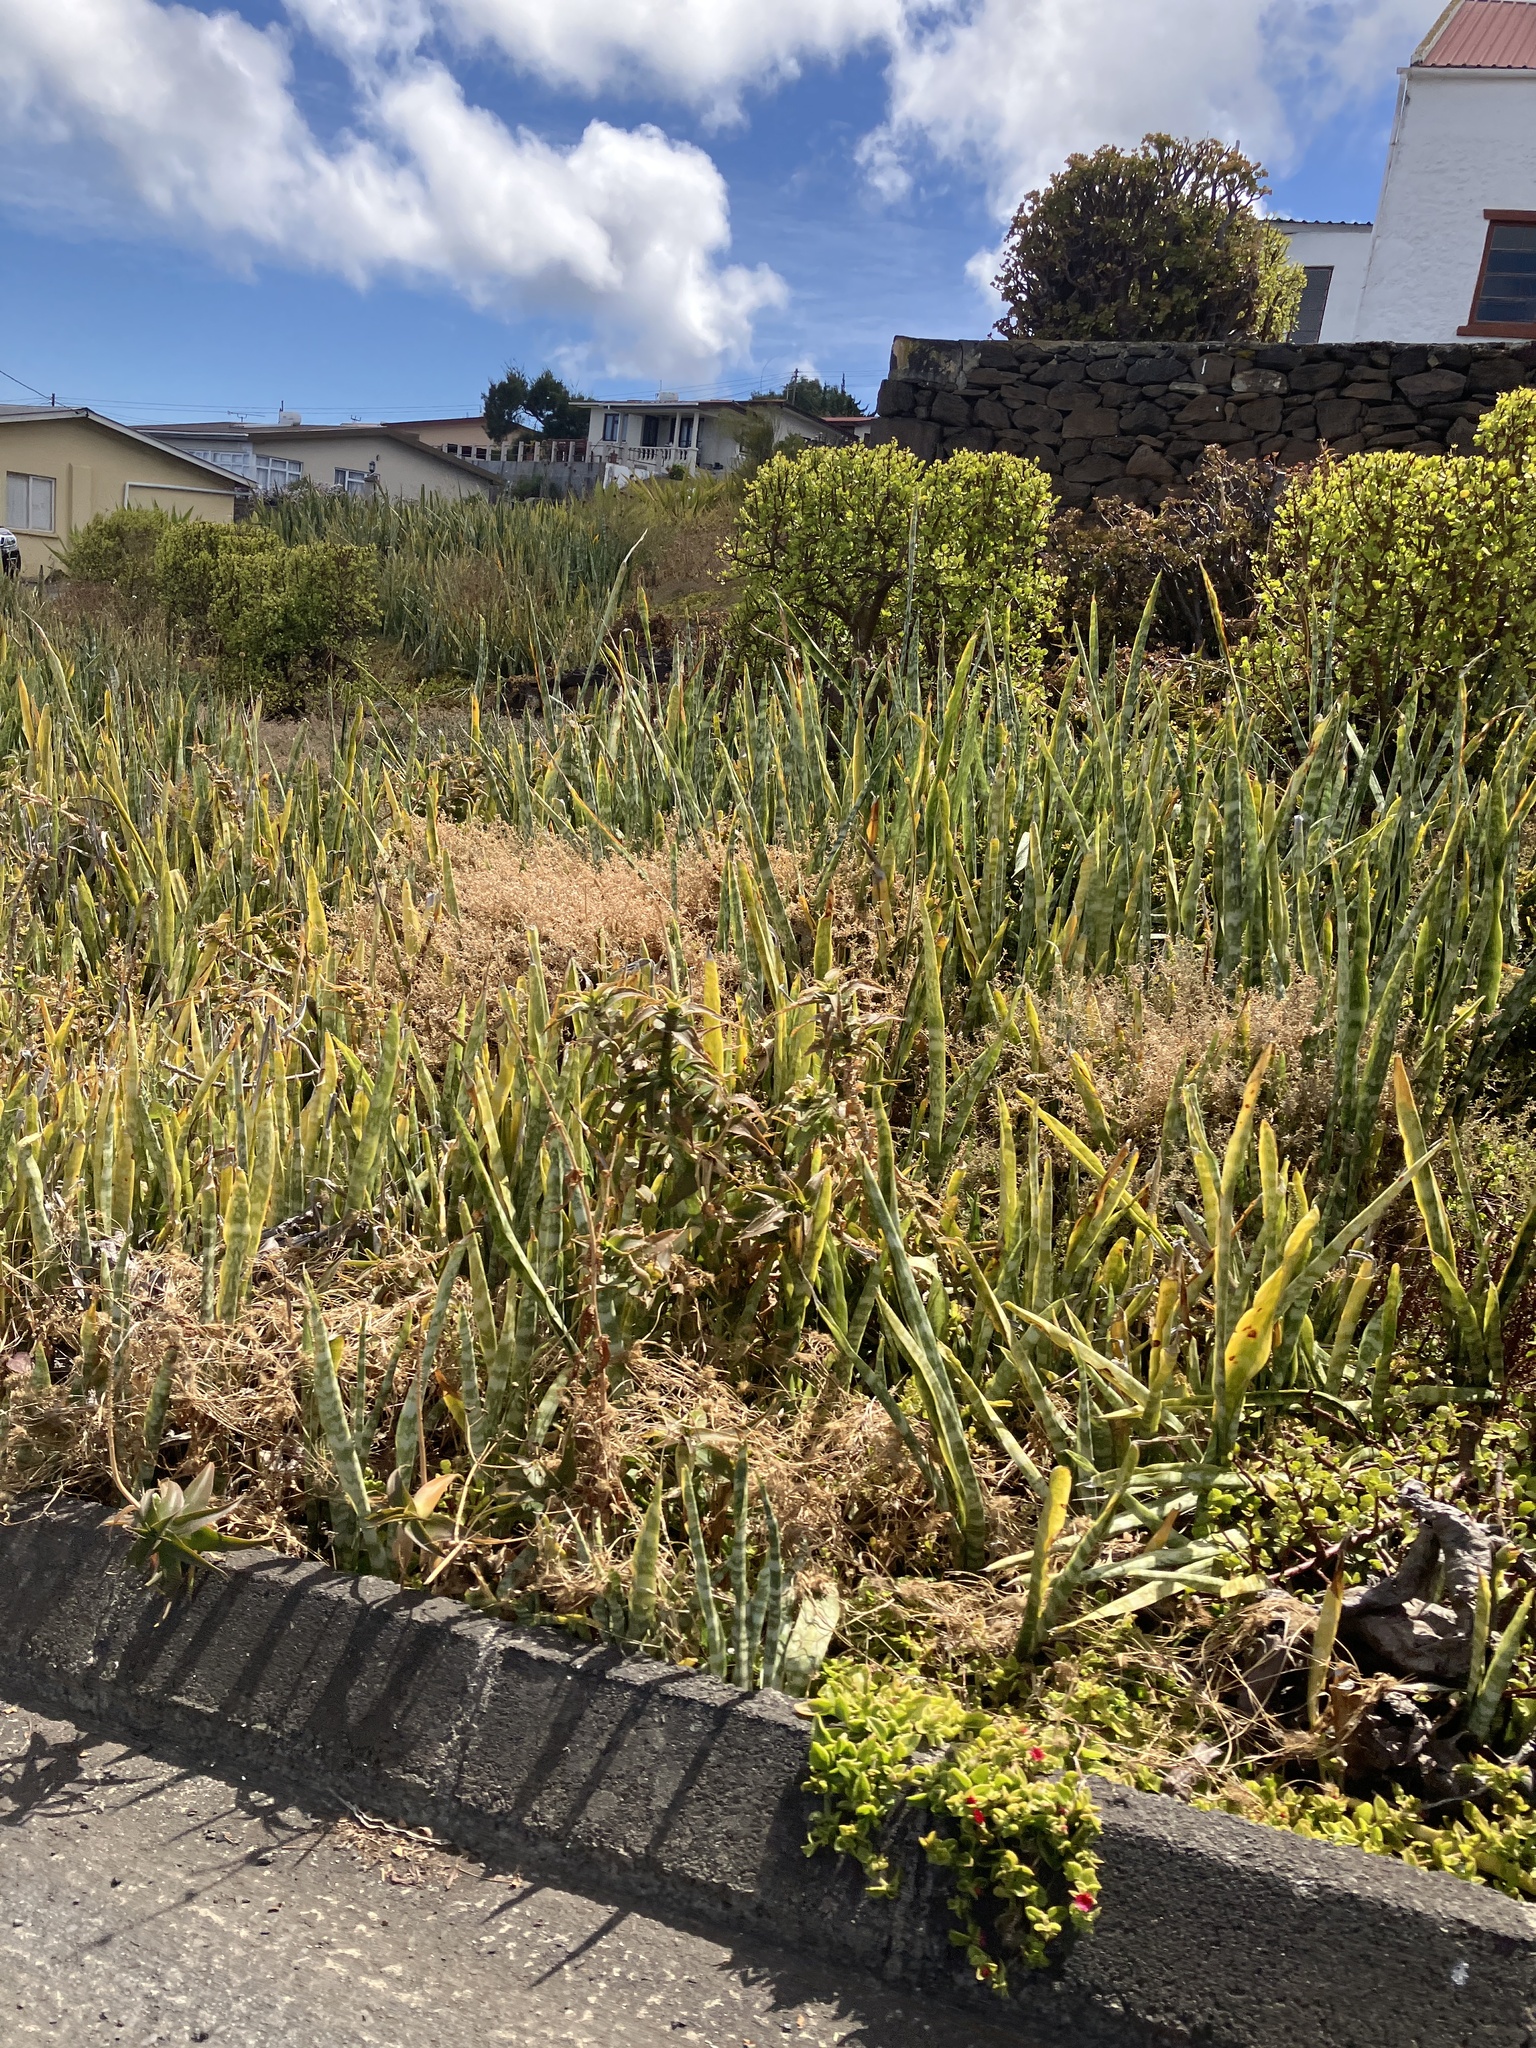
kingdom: Plantae
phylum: Tracheophyta
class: Liliopsida
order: Asparagales
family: Asparagaceae
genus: Dracaena
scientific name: Dracaena trifasciata
